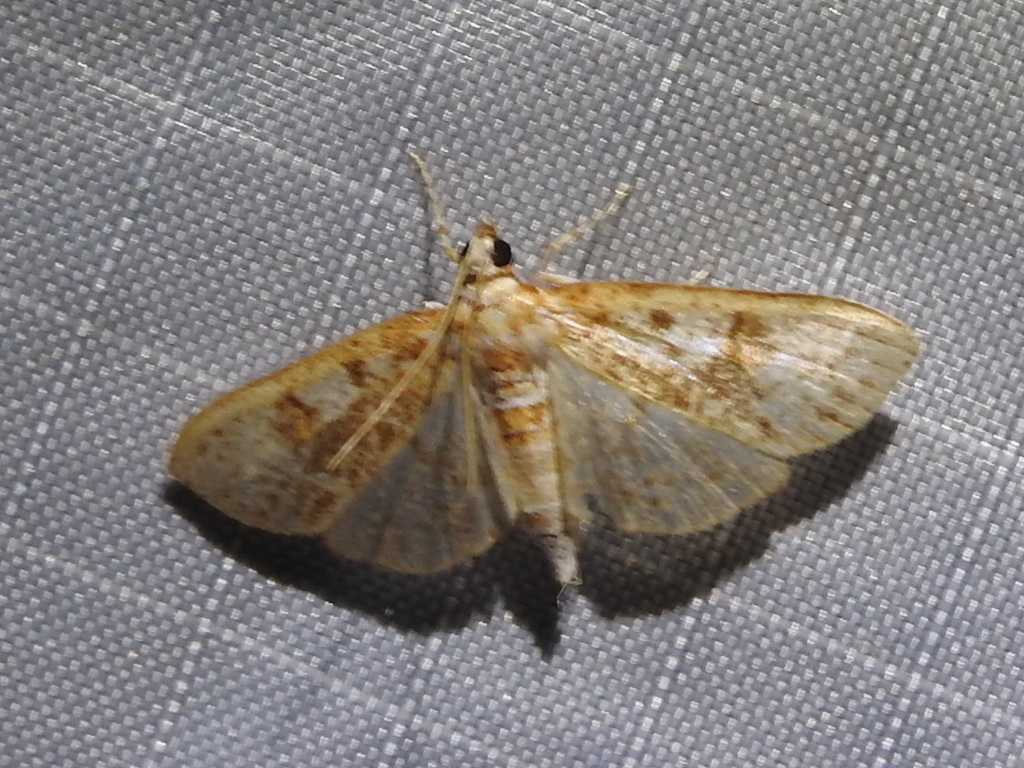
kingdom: Animalia
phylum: Arthropoda
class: Insecta
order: Lepidoptera
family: Crambidae
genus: Palpita
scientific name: Palpita freemanalis
